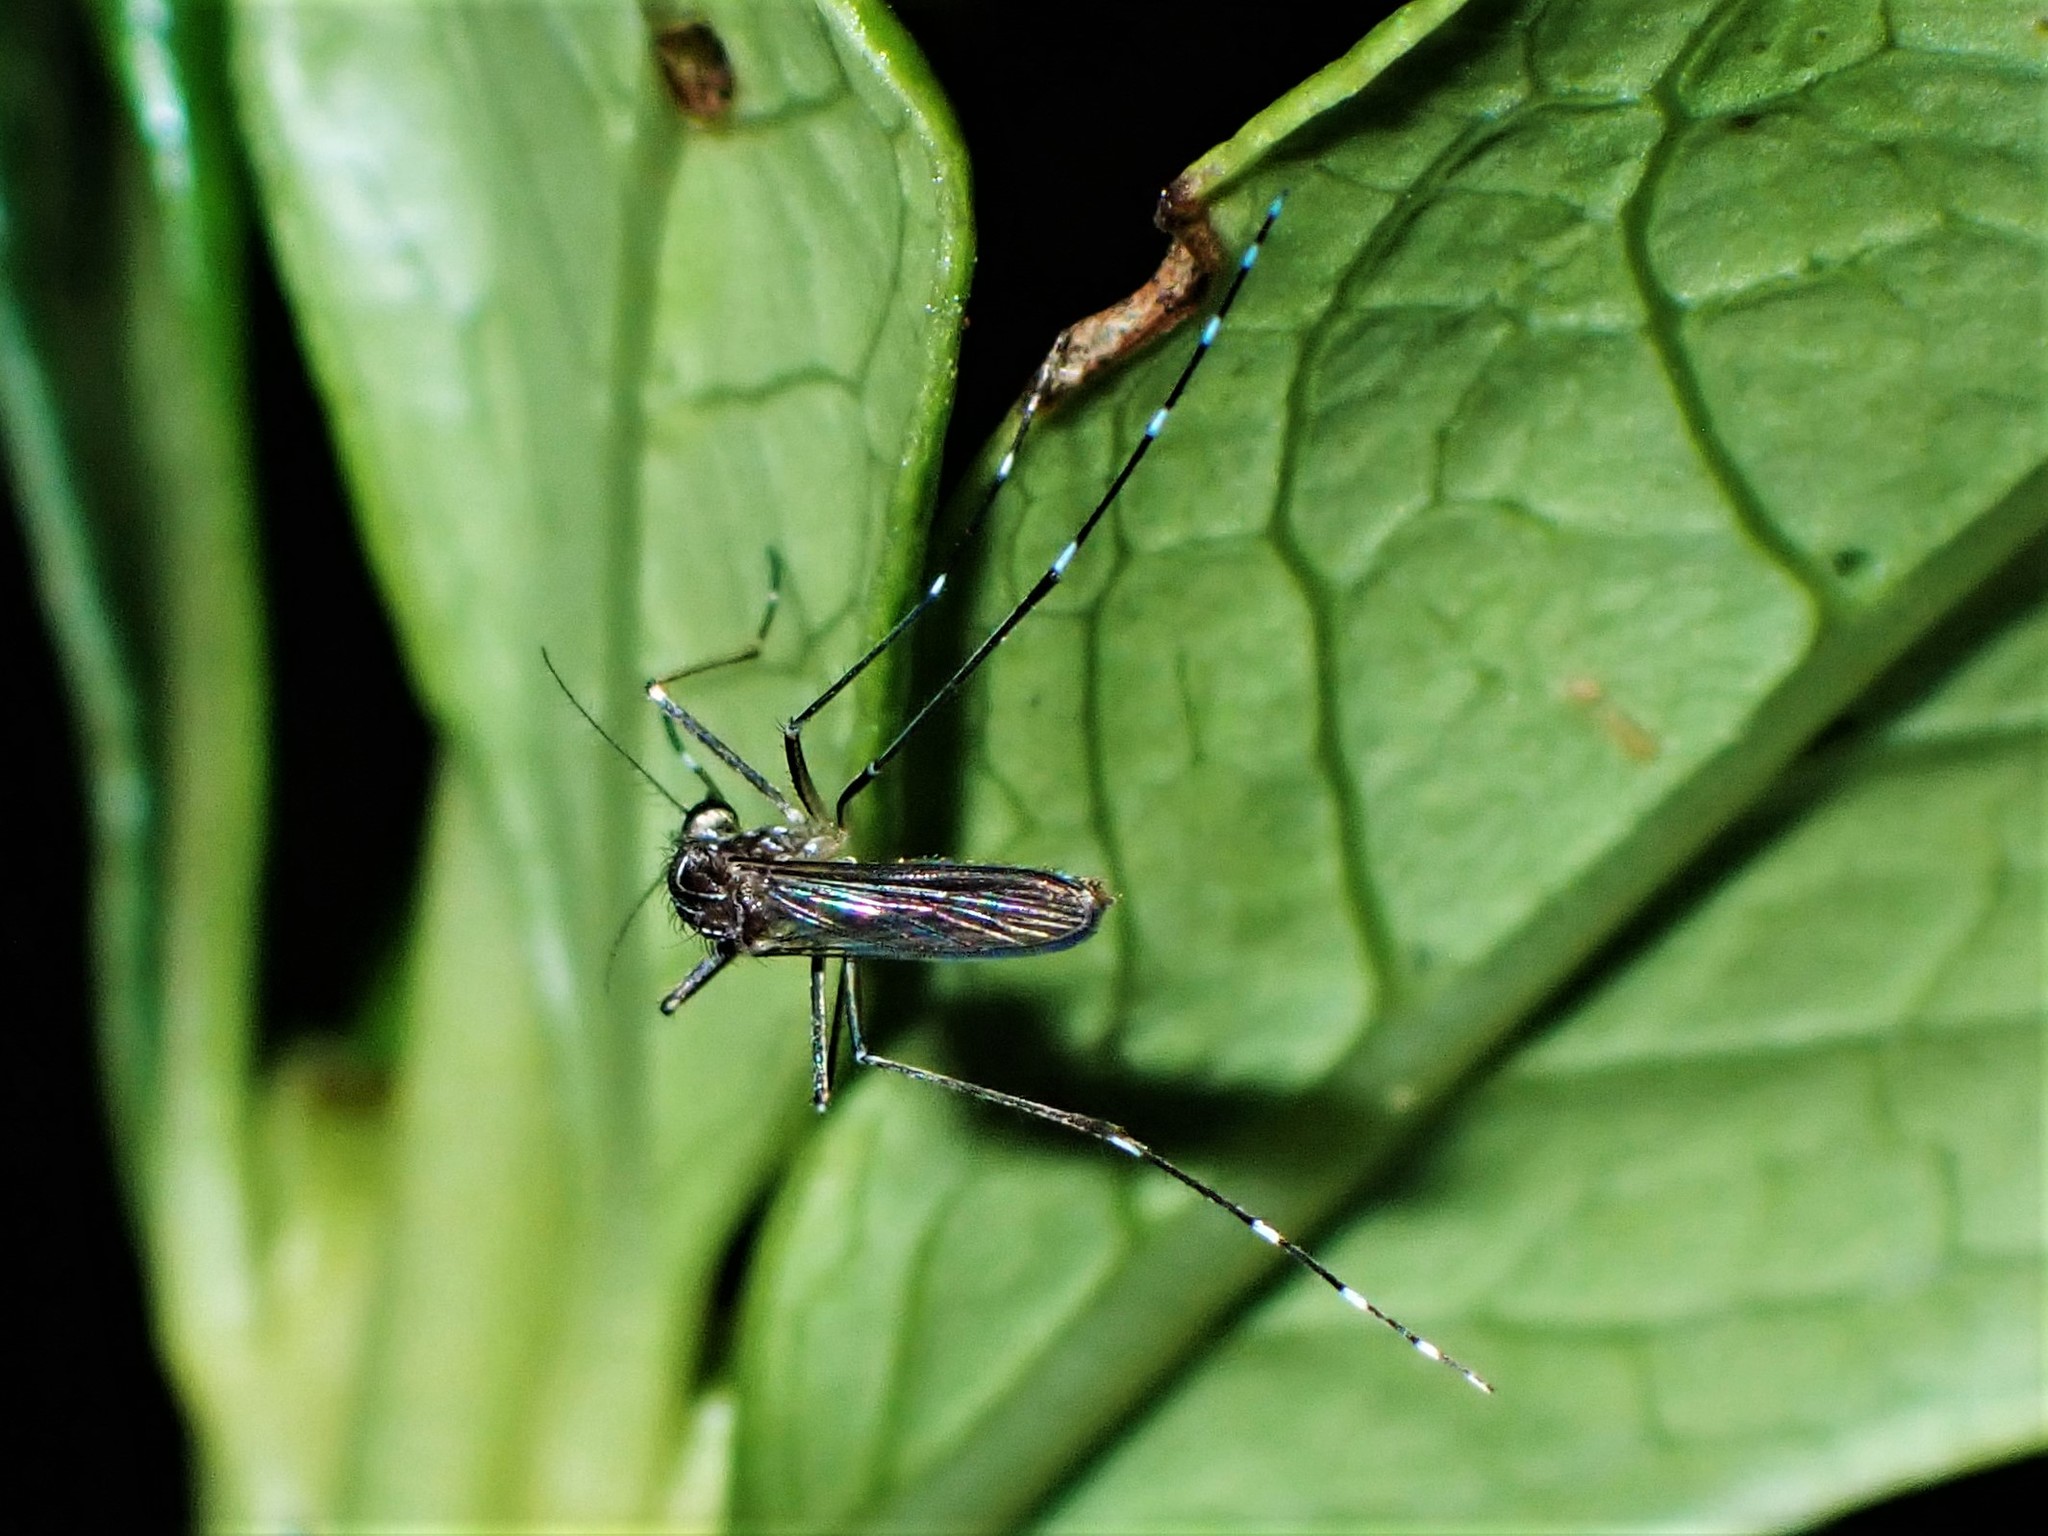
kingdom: Animalia
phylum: Arthropoda
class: Insecta
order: Diptera
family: Culicidae
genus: Aedes
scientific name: Aedes notoscriptus
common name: Australian backyard mosquito
